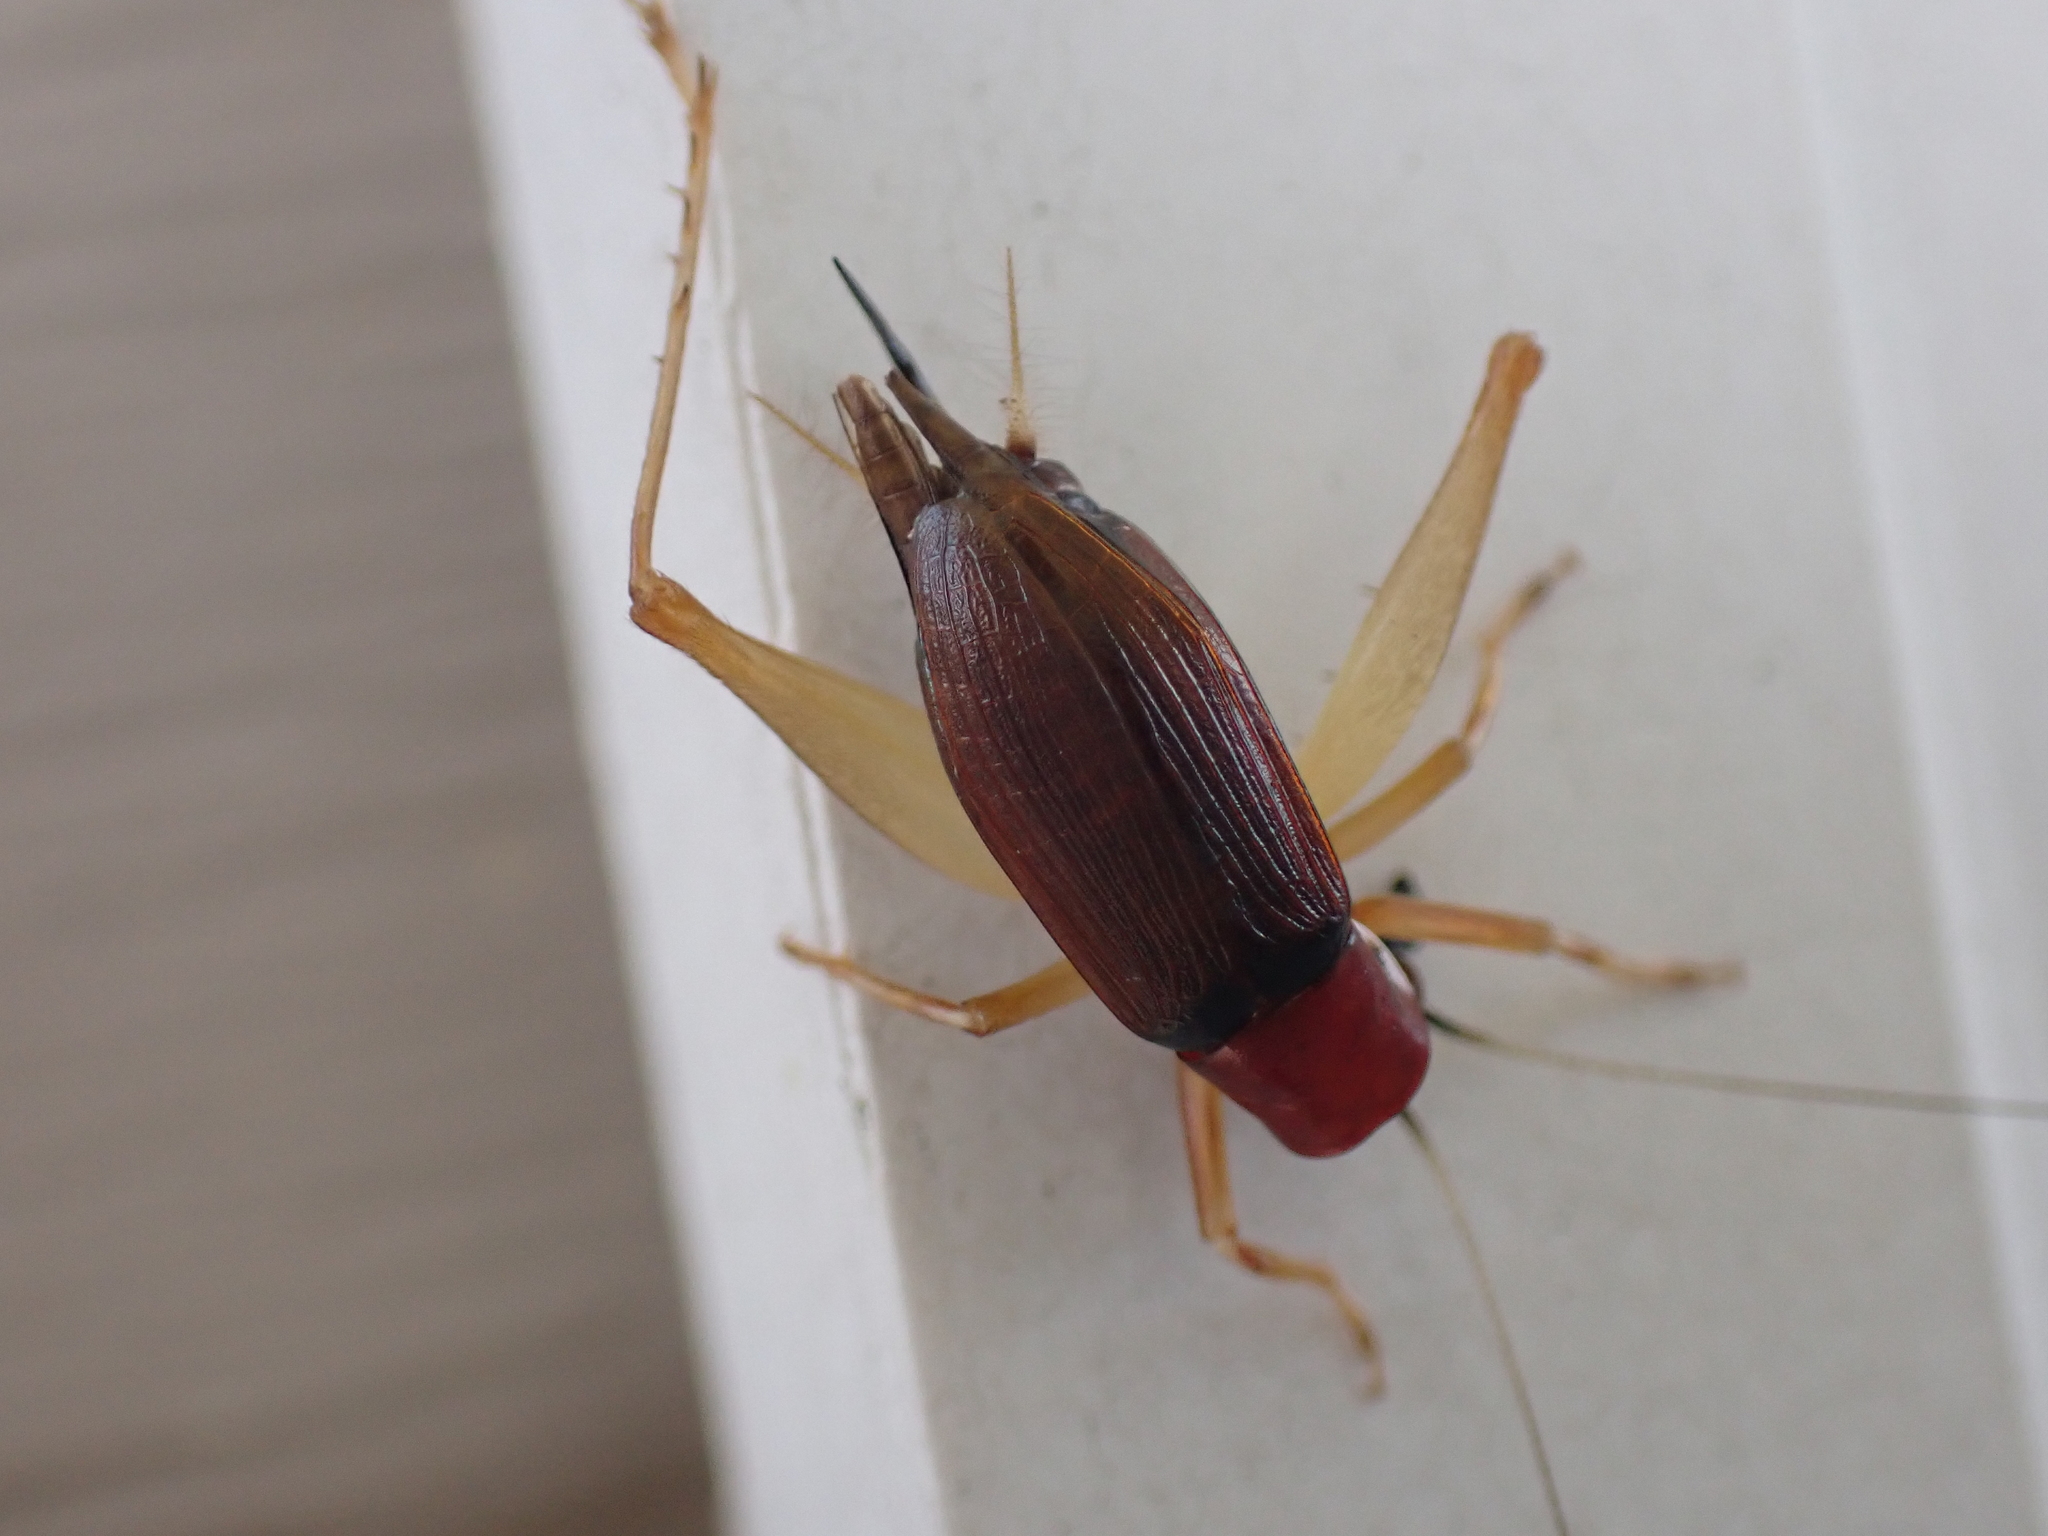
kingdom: Animalia
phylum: Arthropoda
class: Insecta
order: Orthoptera
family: Trigonidiidae
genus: Phyllopalpus
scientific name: Phyllopalpus pulchellus
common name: Handsome trig
